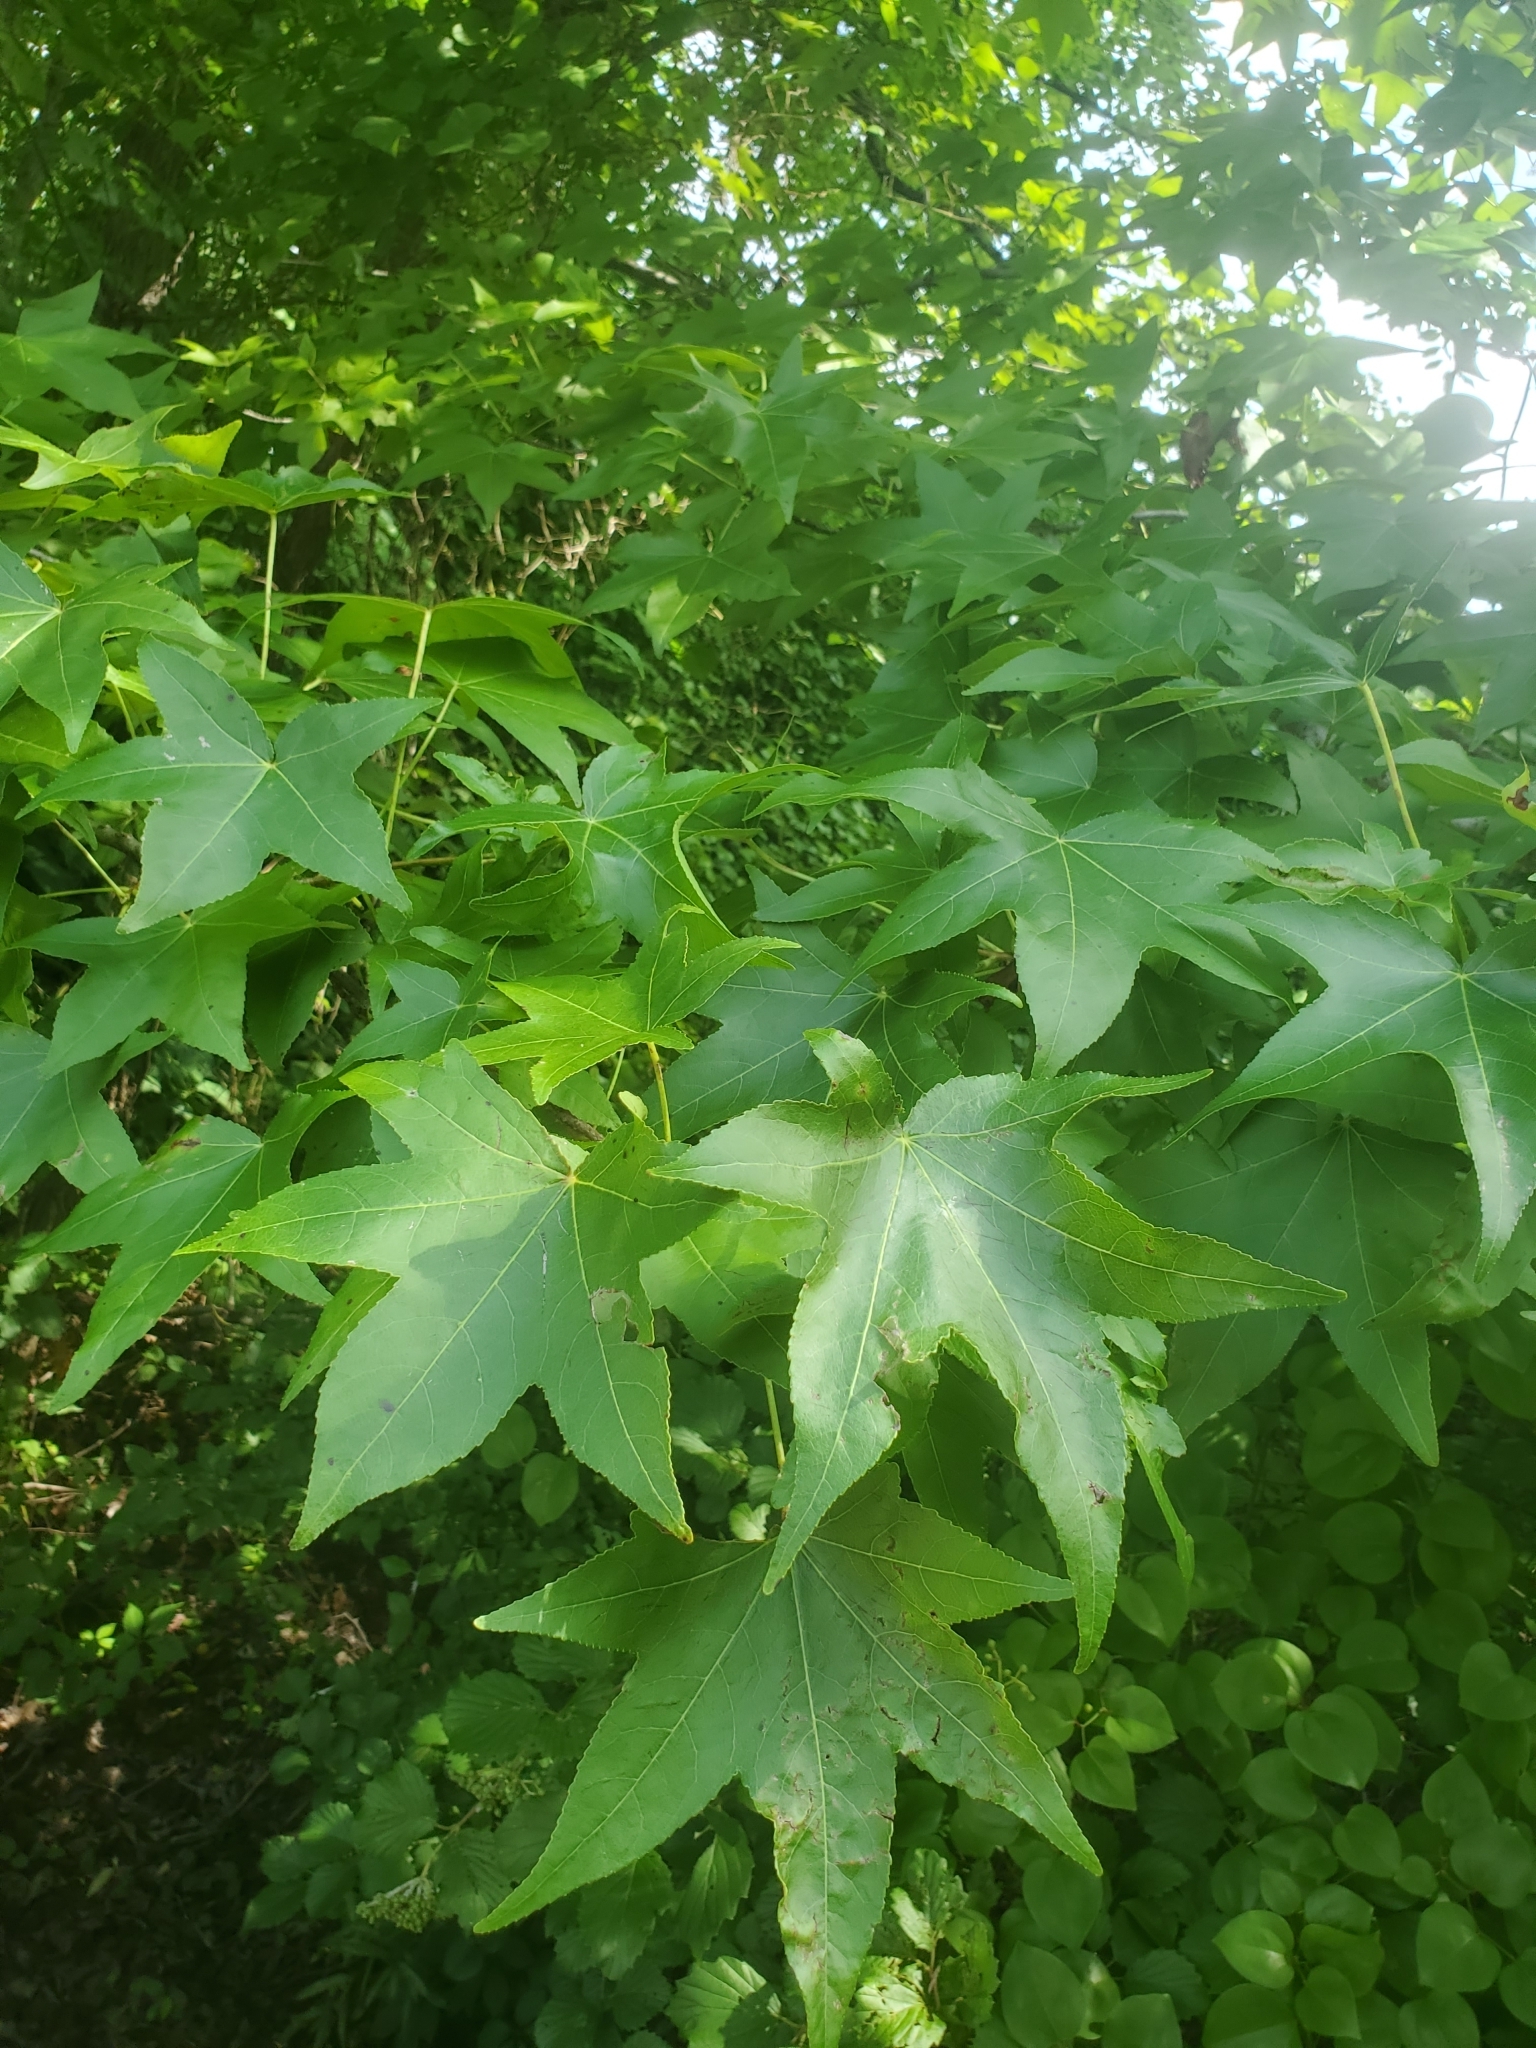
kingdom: Plantae
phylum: Tracheophyta
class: Magnoliopsida
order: Saxifragales
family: Altingiaceae
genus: Liquidambar
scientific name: Liquidambar styraciflua
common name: Sweet gum
